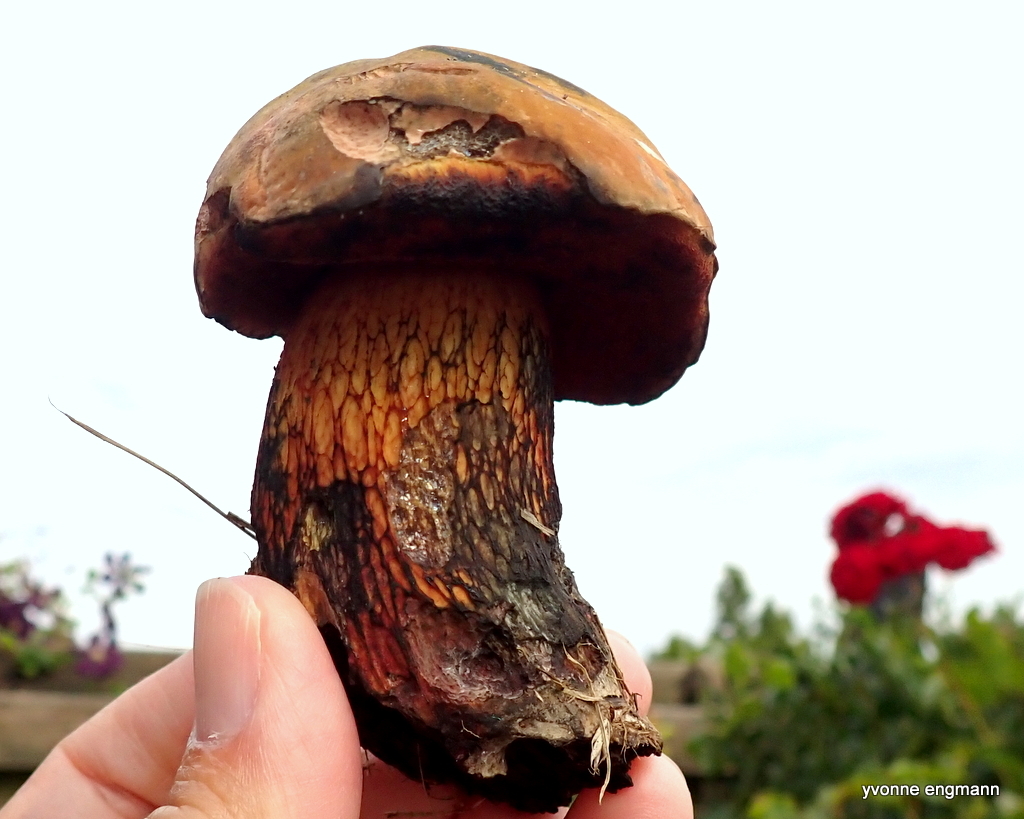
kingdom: Fungi
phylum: Basidiomycota
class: Agaricomycetes
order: Boletales
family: Boletaceae
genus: Suillellus
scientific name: Suillellus luridus
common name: Lurid bolete
